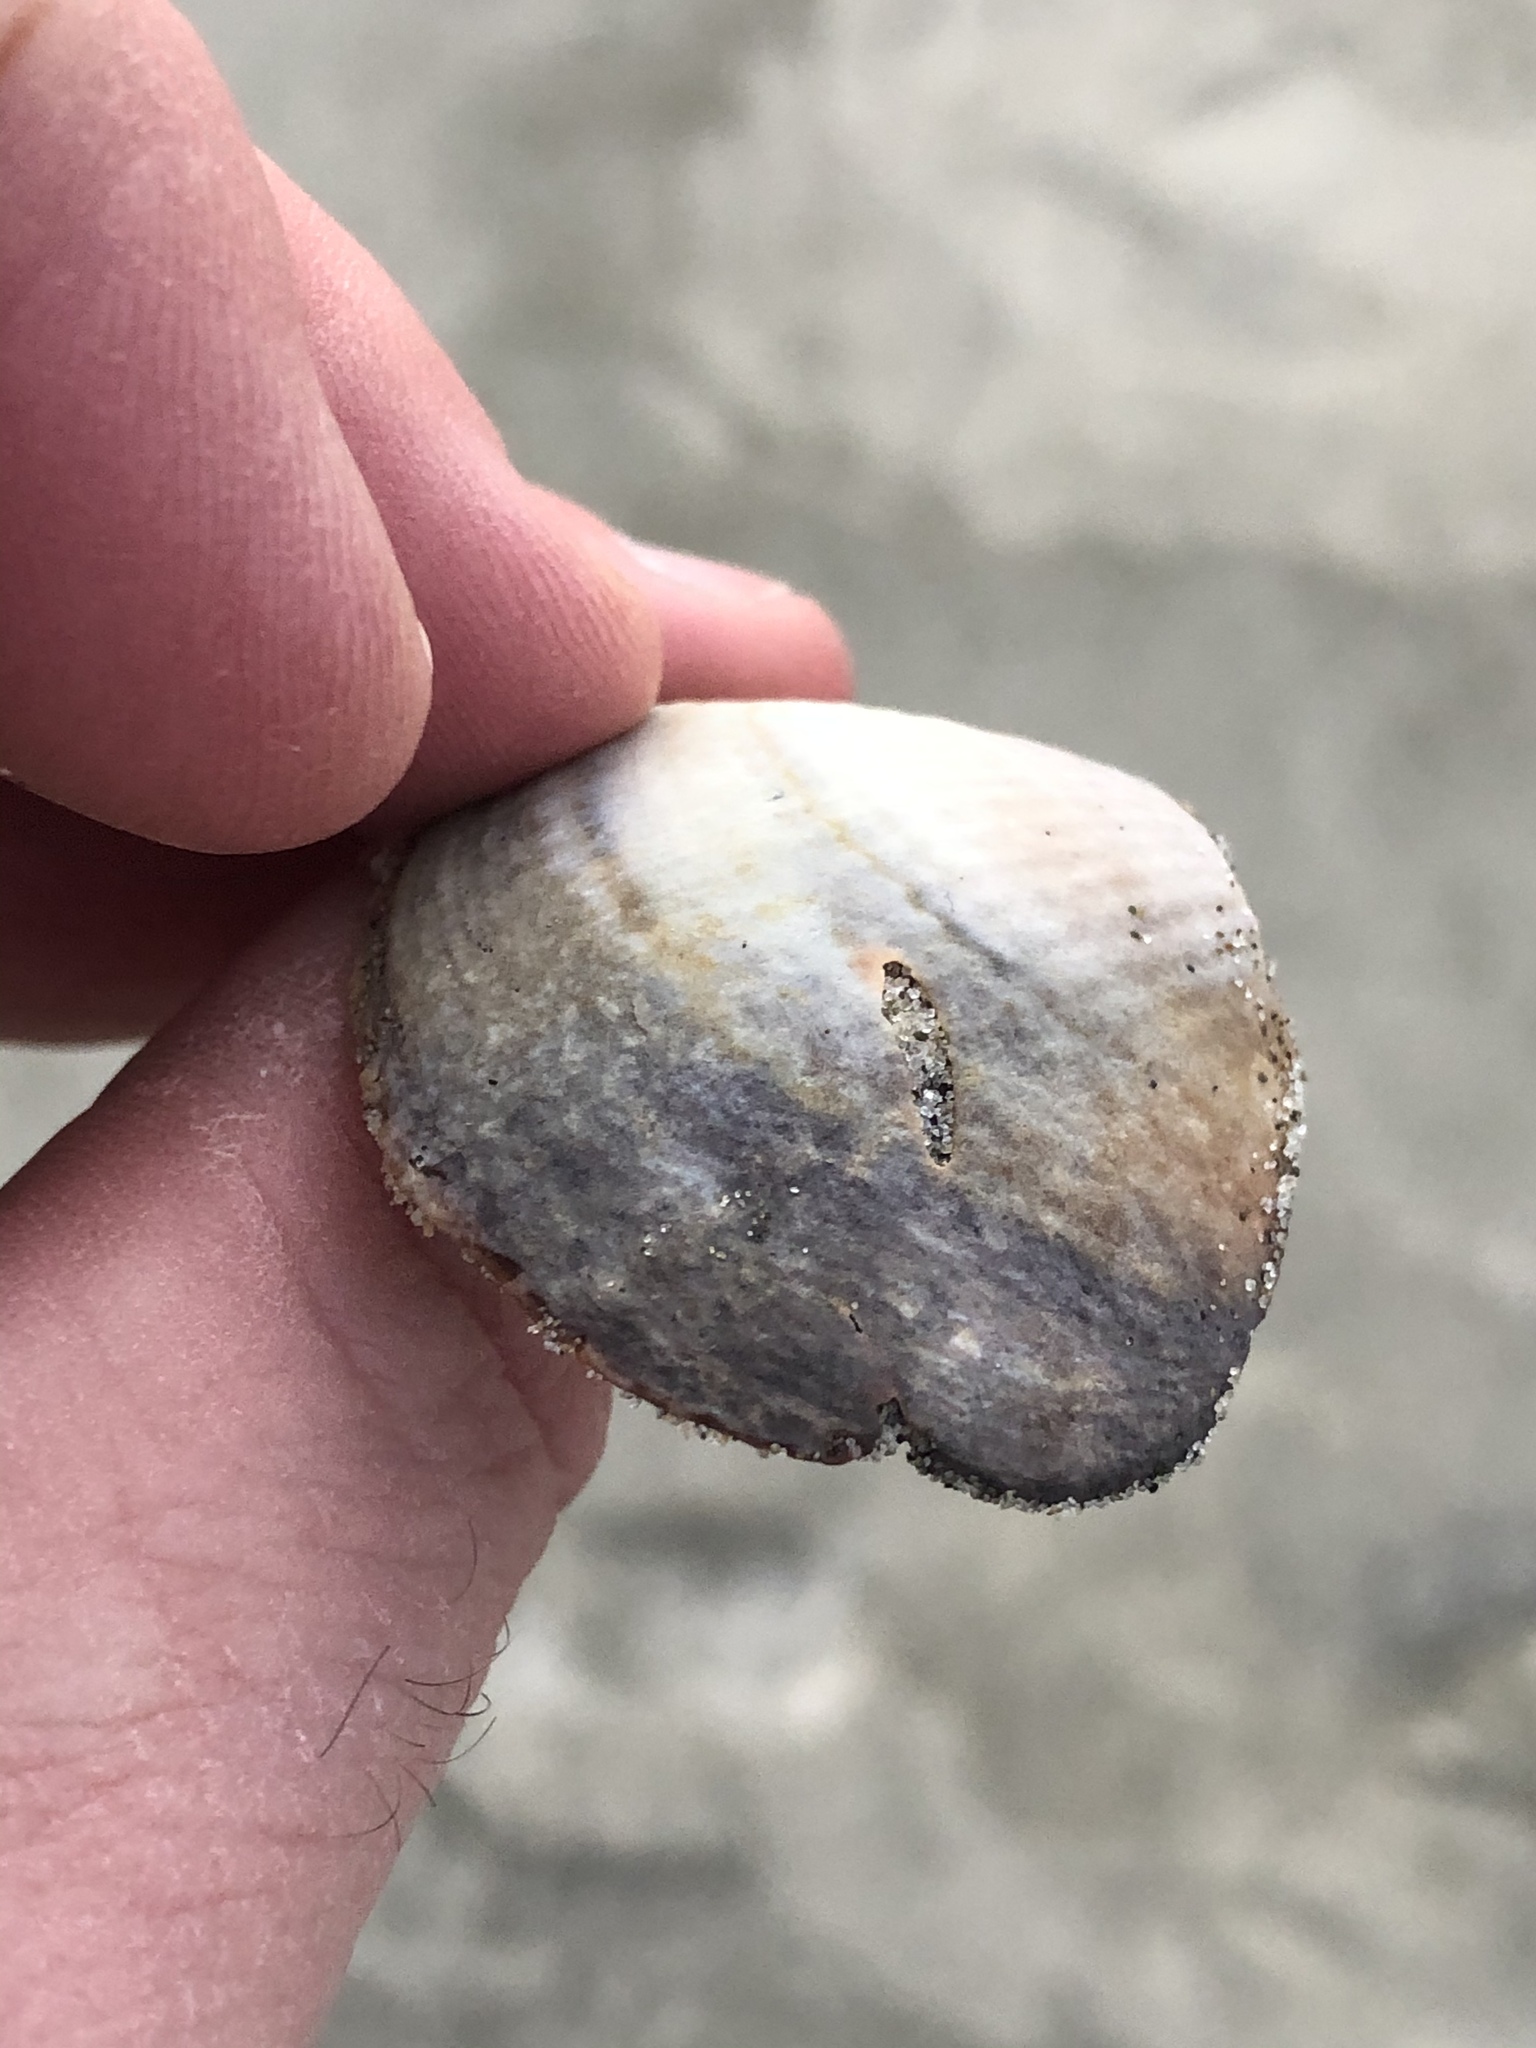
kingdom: Animalia
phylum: Mollusca
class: Bivalvia
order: Venerida
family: Veneridae
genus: Austrovenus
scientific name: Austrovenus stutchburyi
